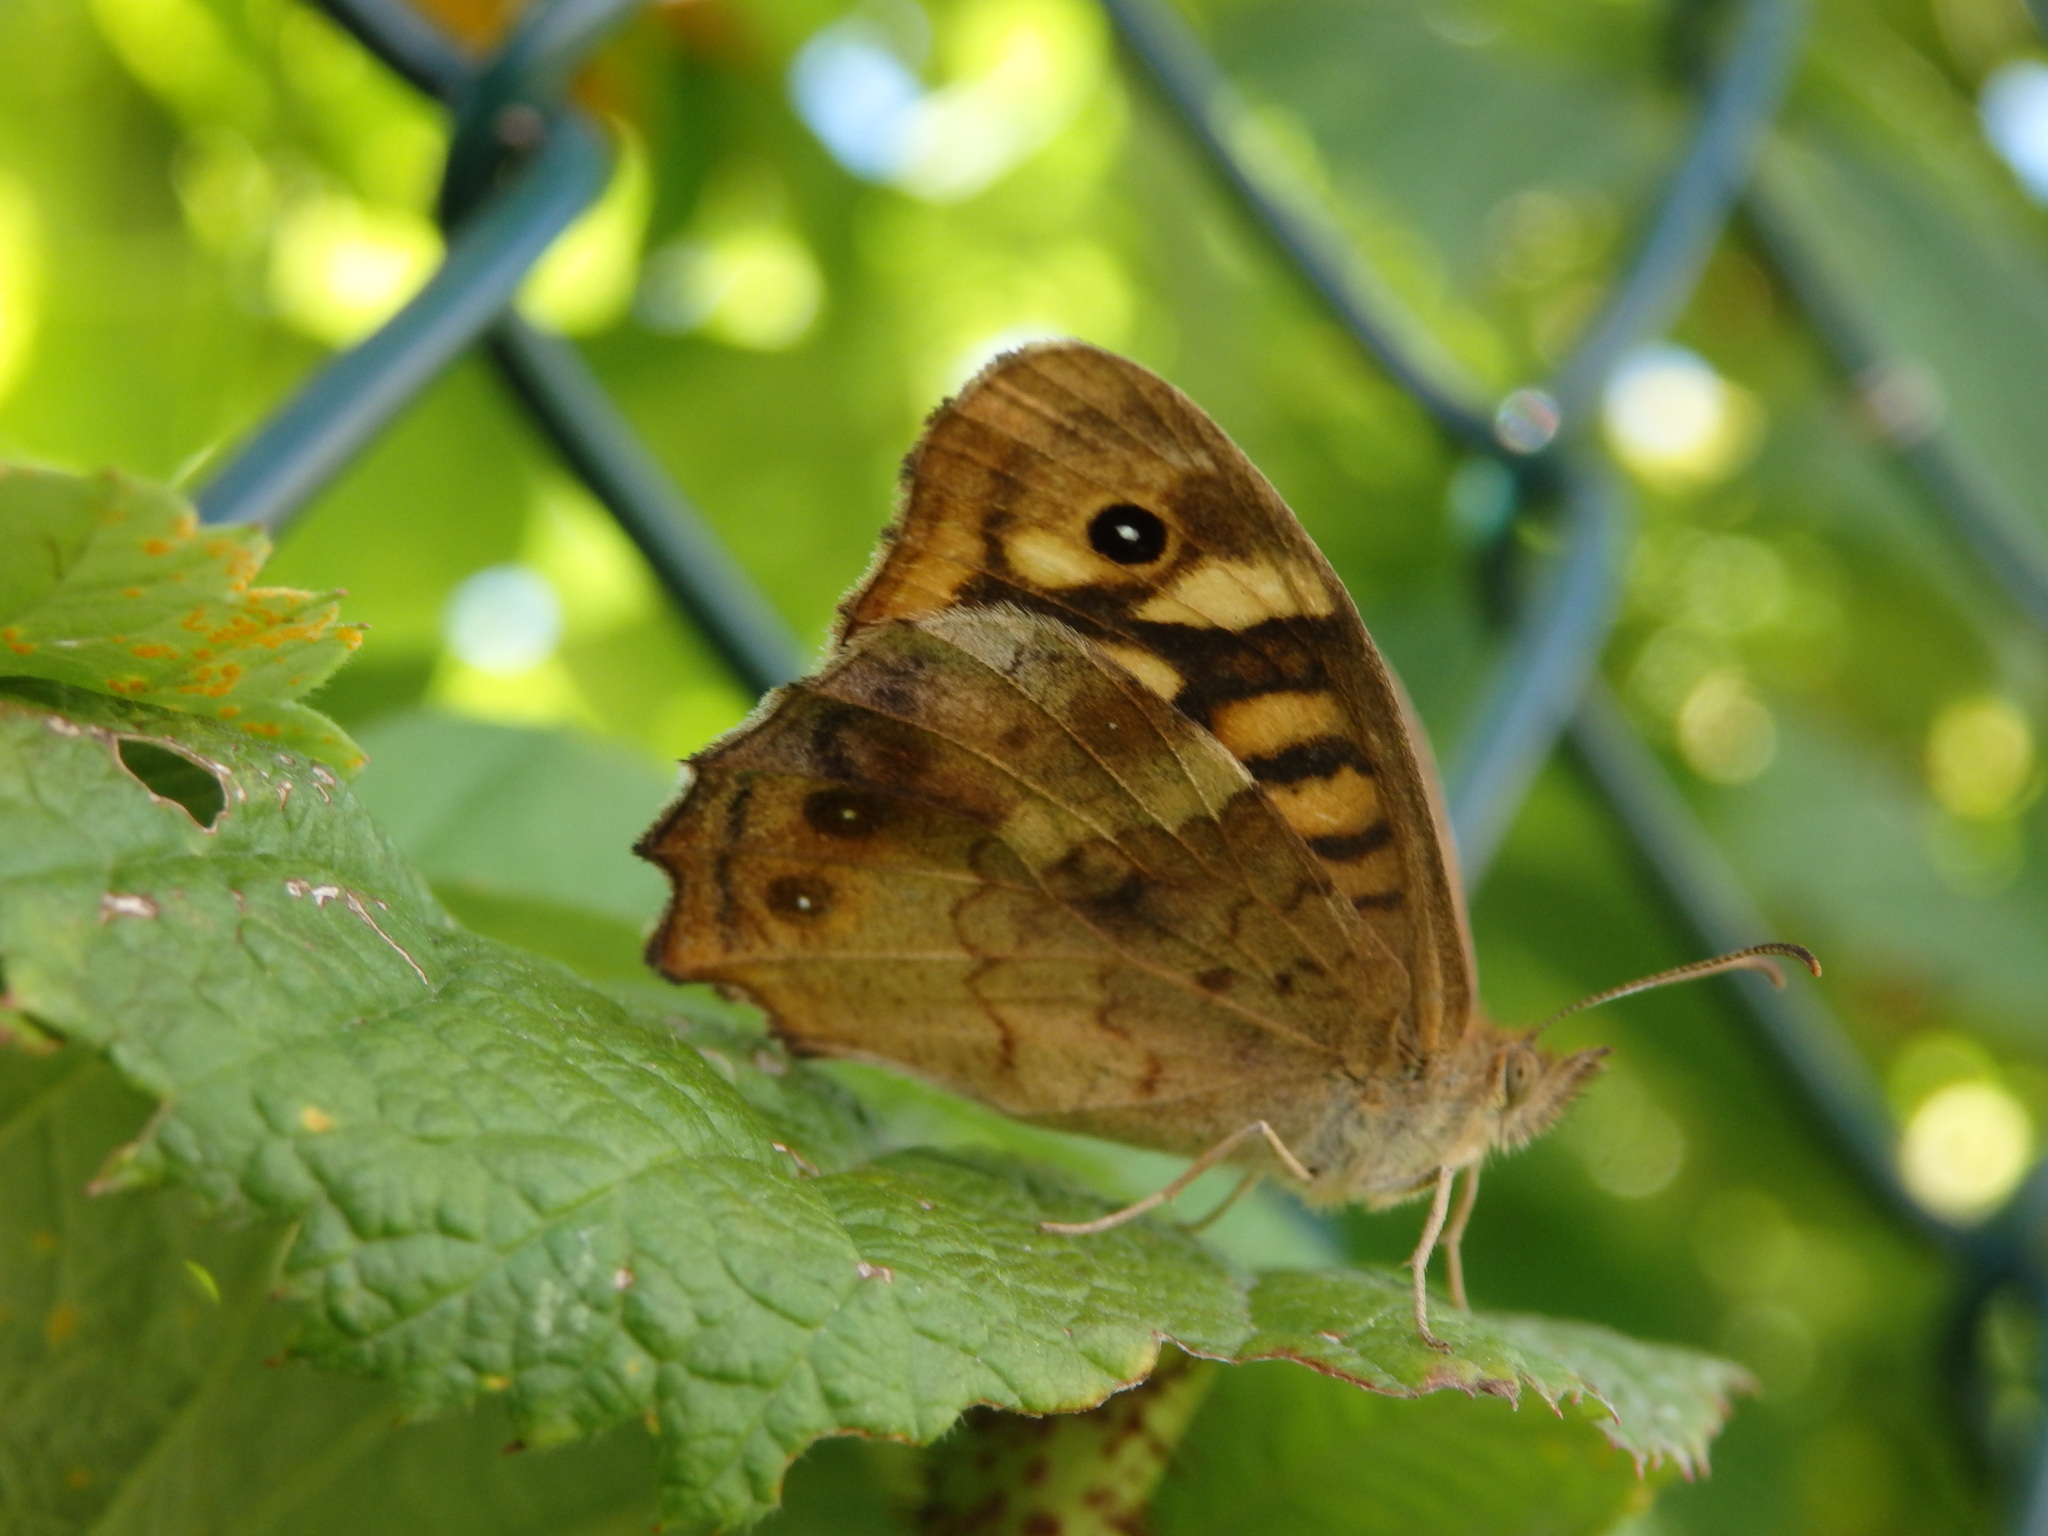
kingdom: Animalia
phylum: Arthropoda
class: Insecta
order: Lepidoptera
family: Nymphalidae
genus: Pararge
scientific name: Pararge aegeria
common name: Speckled wood
